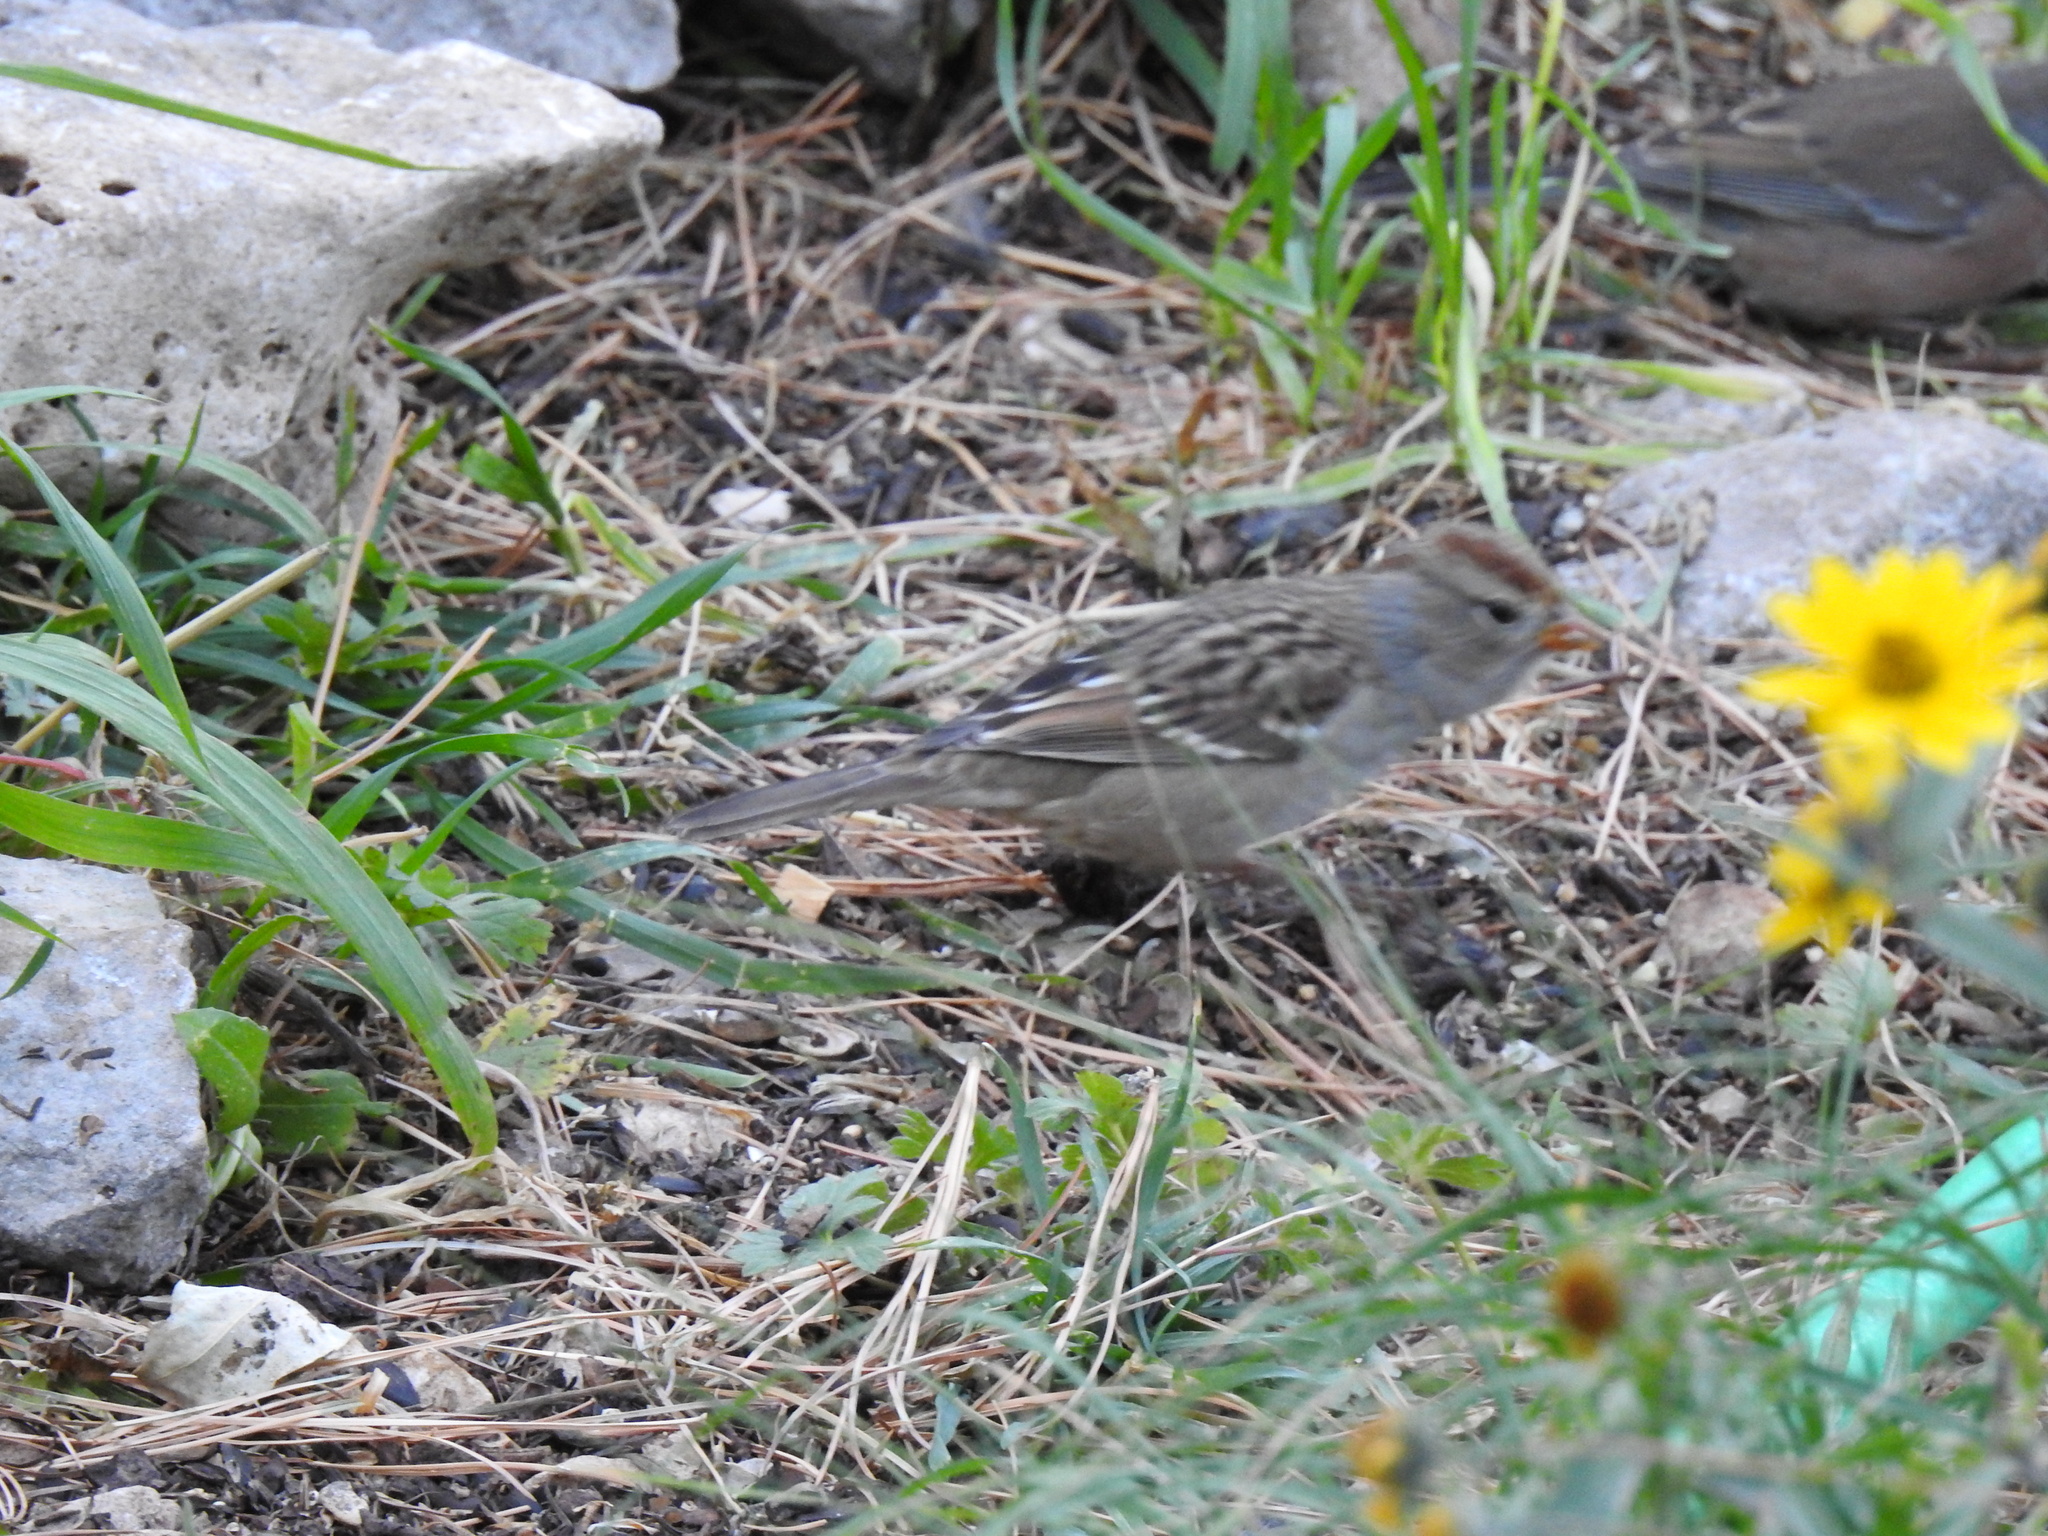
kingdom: Animalia
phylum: Chordata
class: Aves
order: Passeriformes
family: Passerellidae
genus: Zonotrichia
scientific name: Zonotrichia leucophrys
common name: White-crowned sparrow
